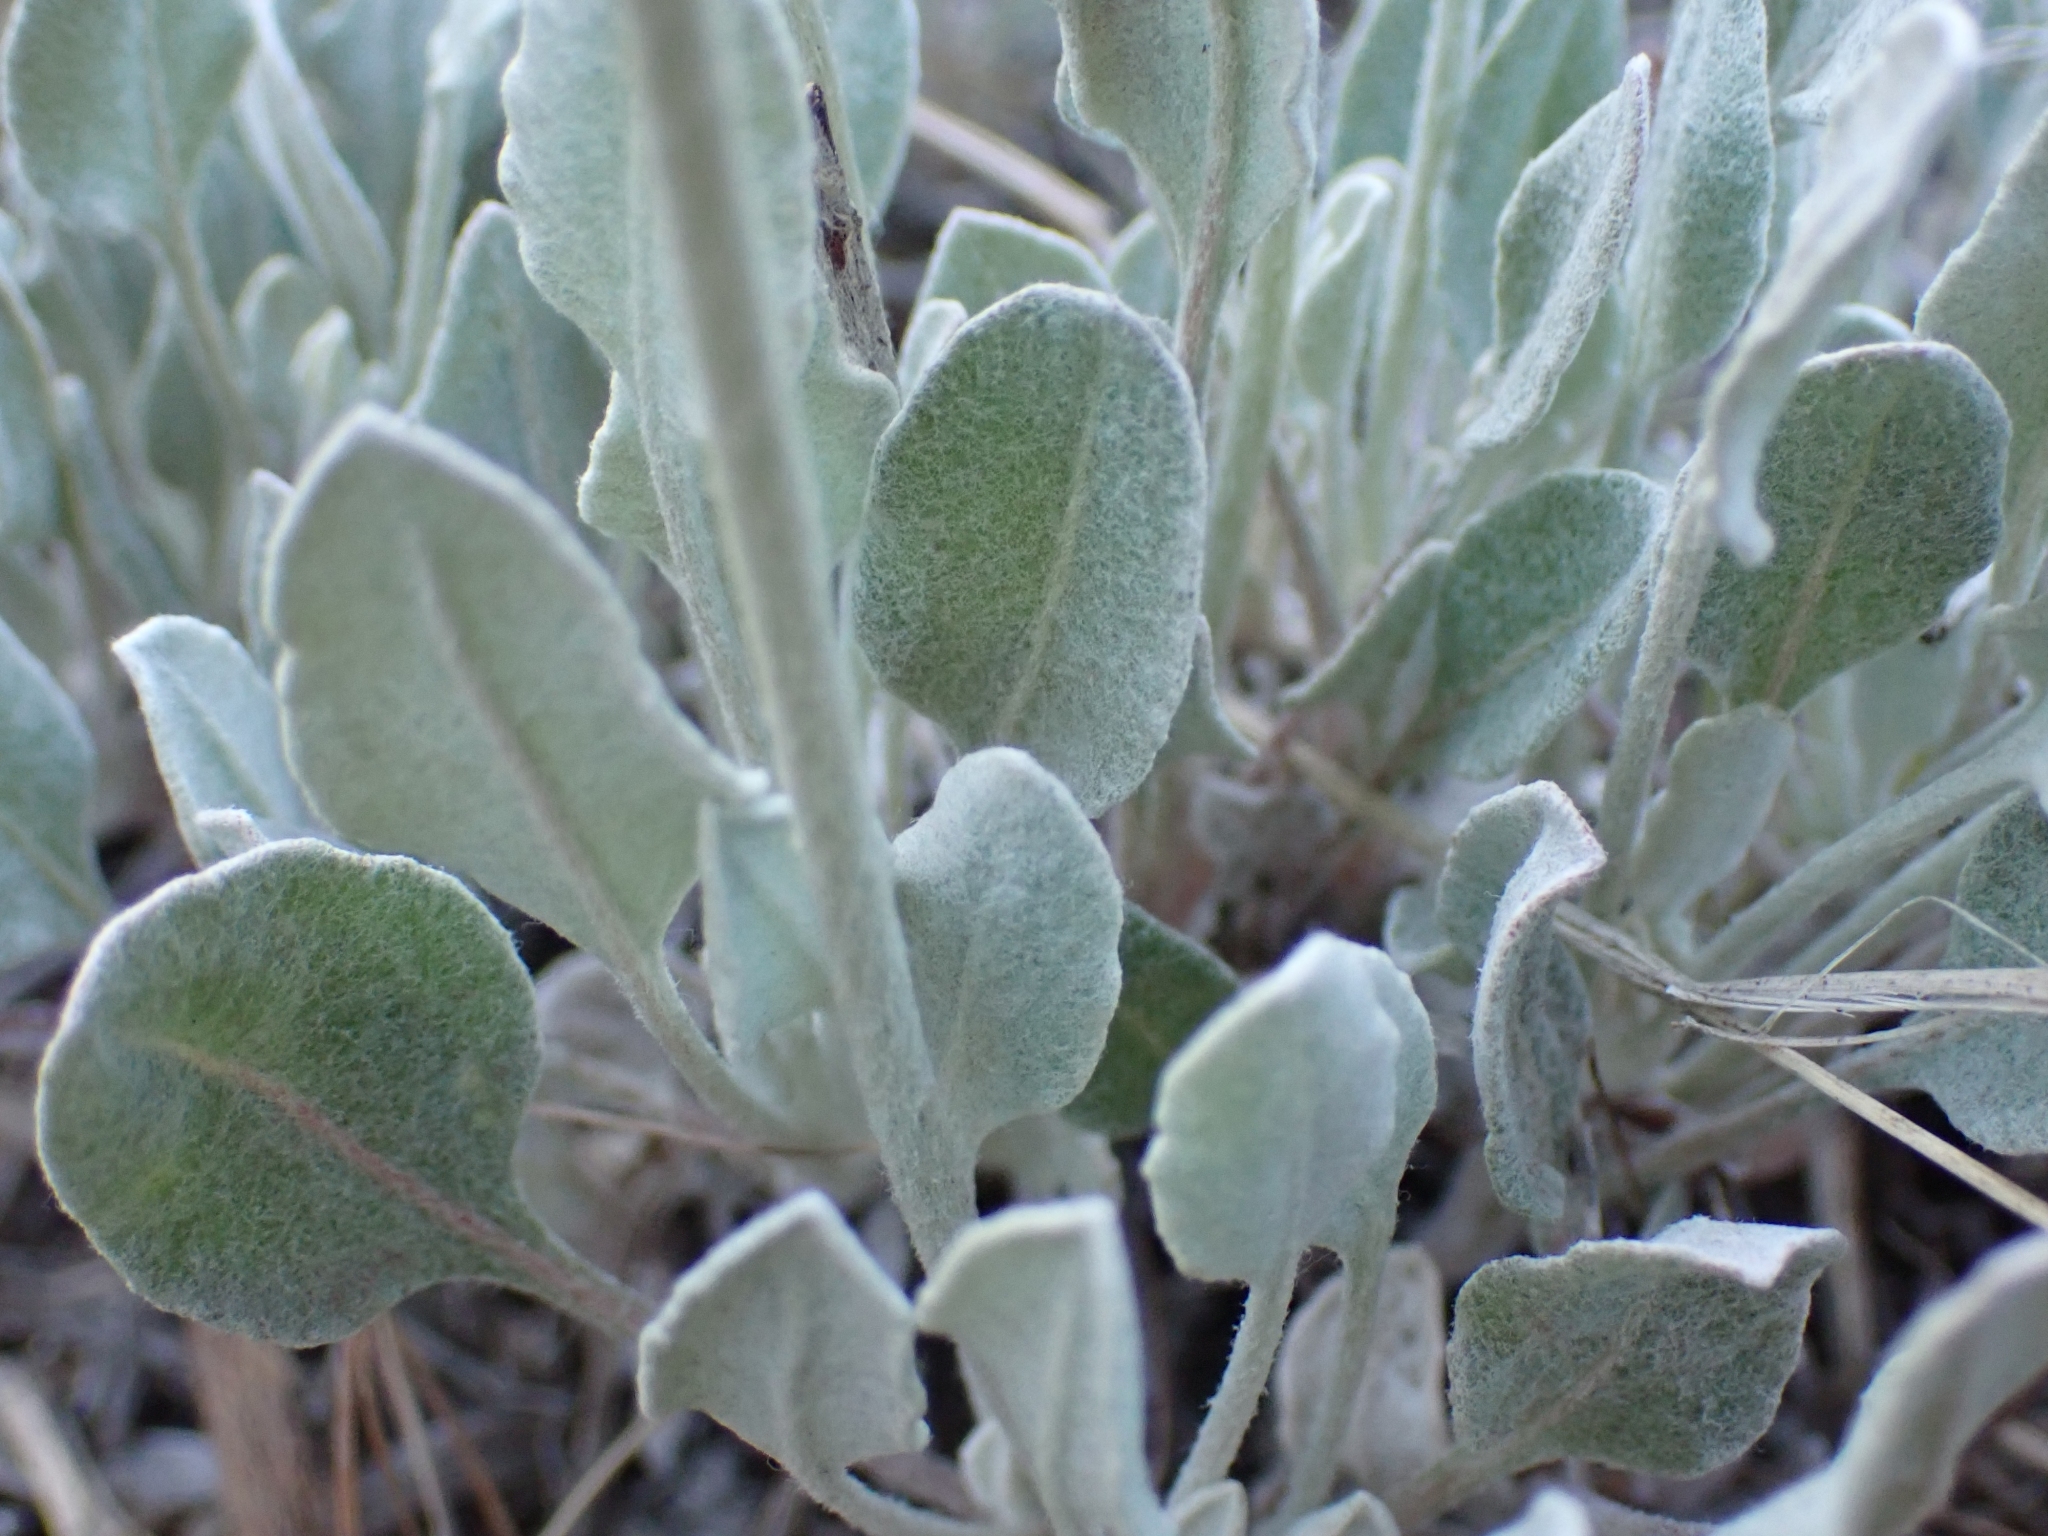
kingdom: Plantae
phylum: Tracheophyta
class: Magnoliopsida
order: Caryophyllales
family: Polygonaceae
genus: Eriogonum
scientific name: Eriogonum niveum
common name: Snow wild buckwheat
